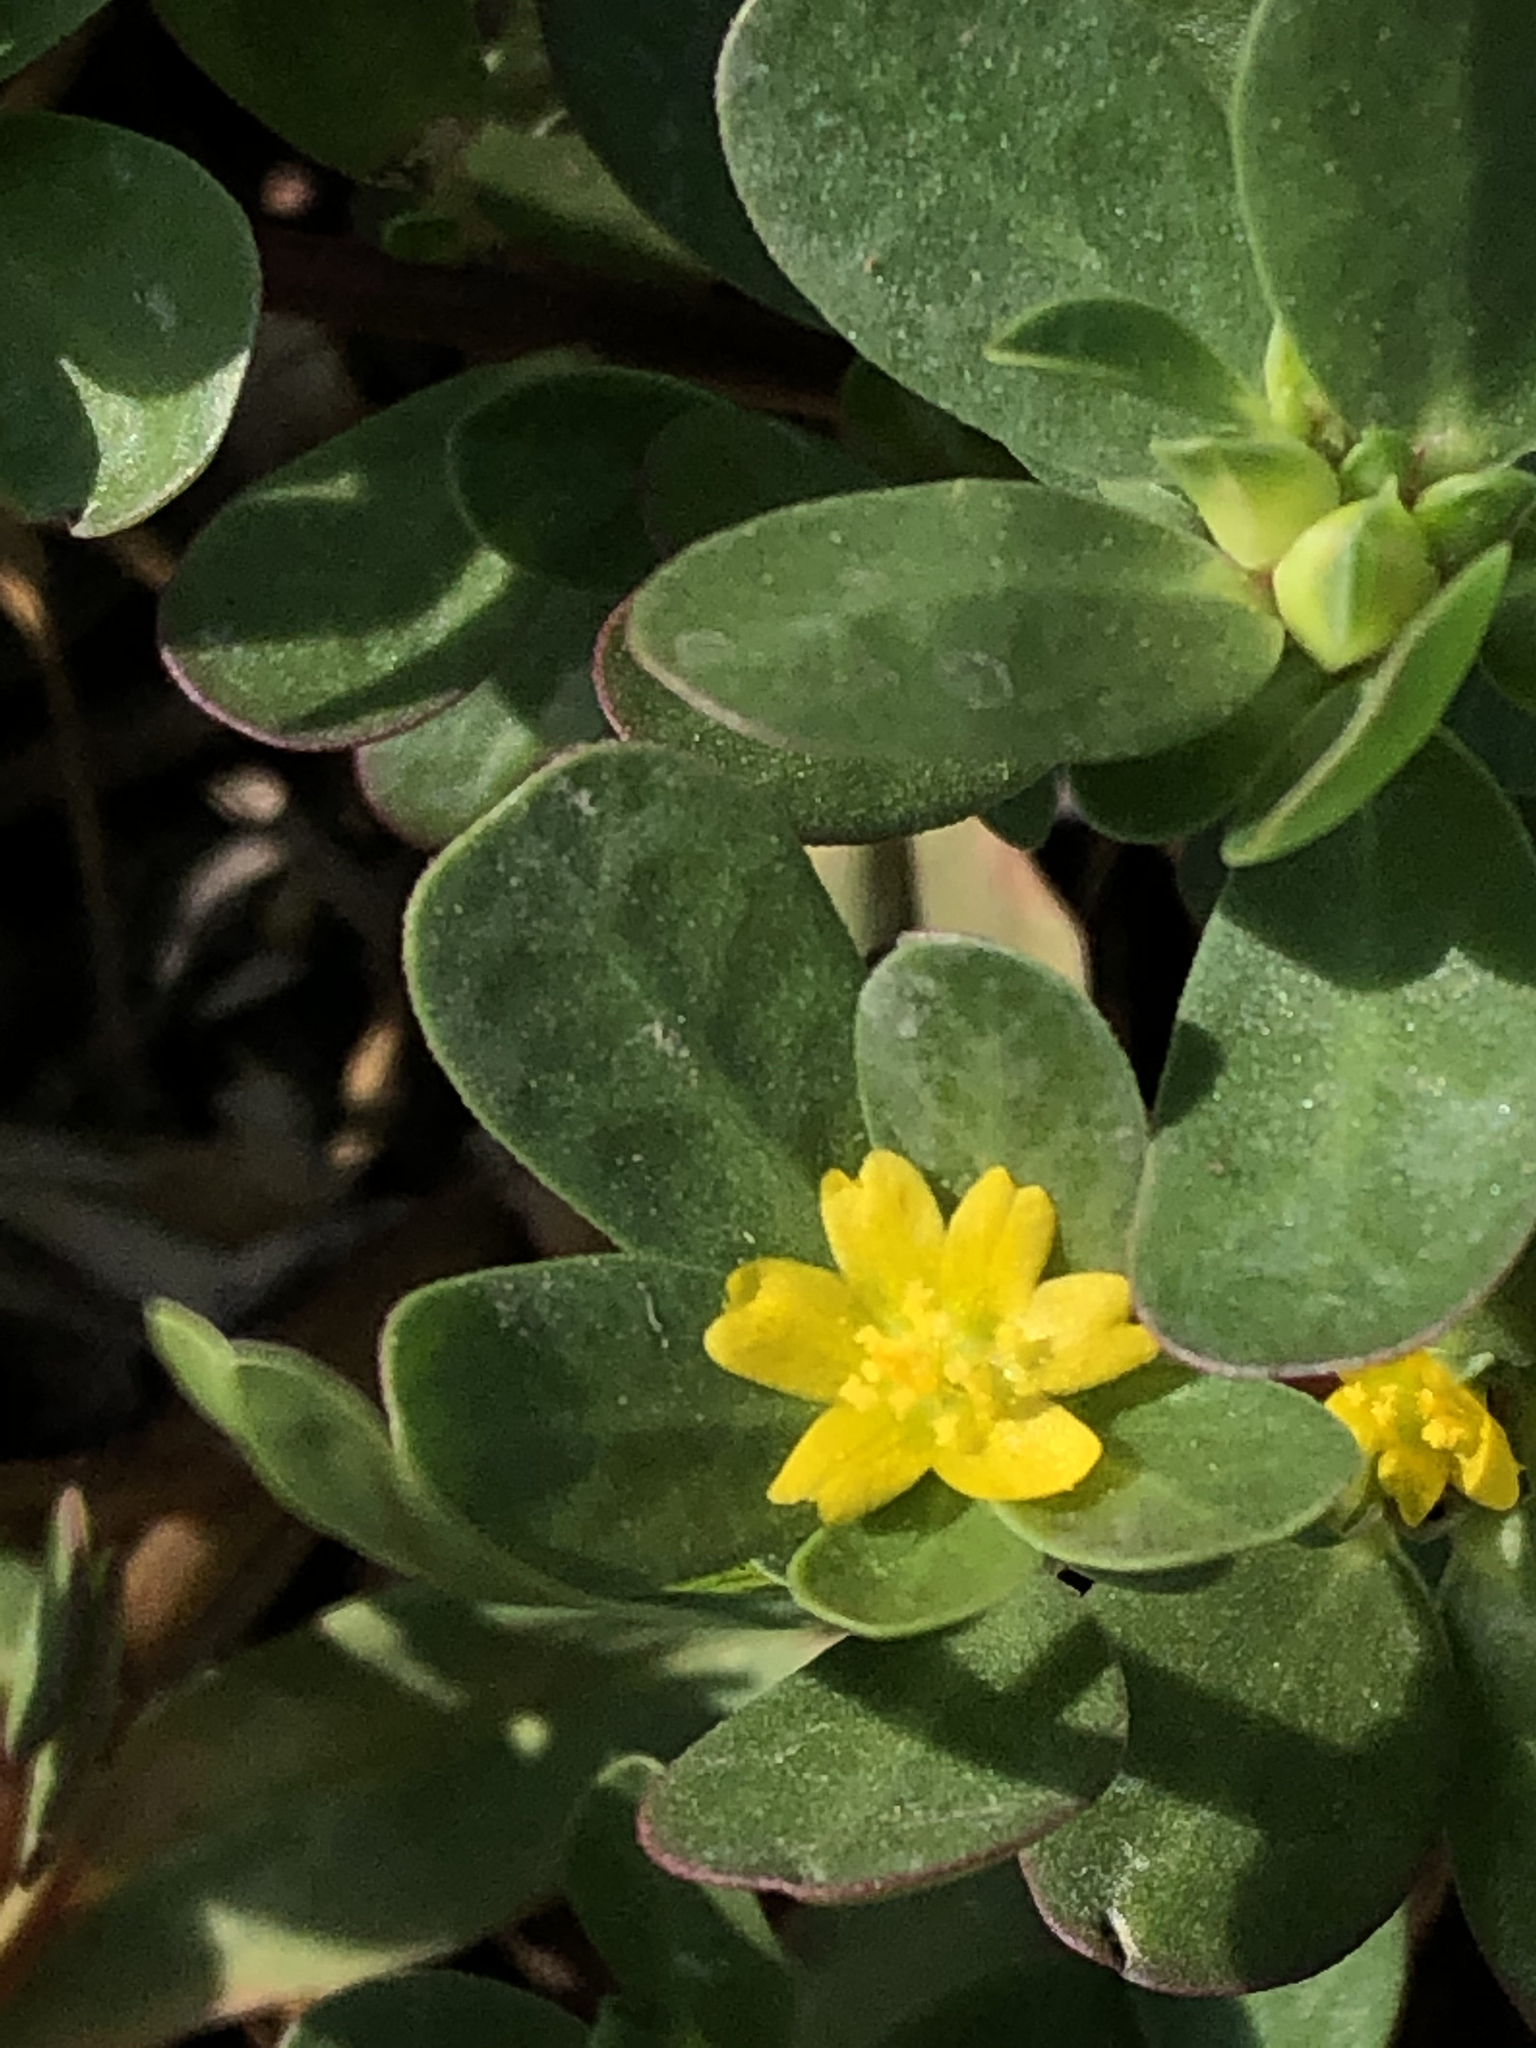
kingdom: Plantae
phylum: Tracheophyta
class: Magnoliopsida
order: Caryophyllales
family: Portulacaceae
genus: Portulaca
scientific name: Portulaca oleracea
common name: Common purslane
